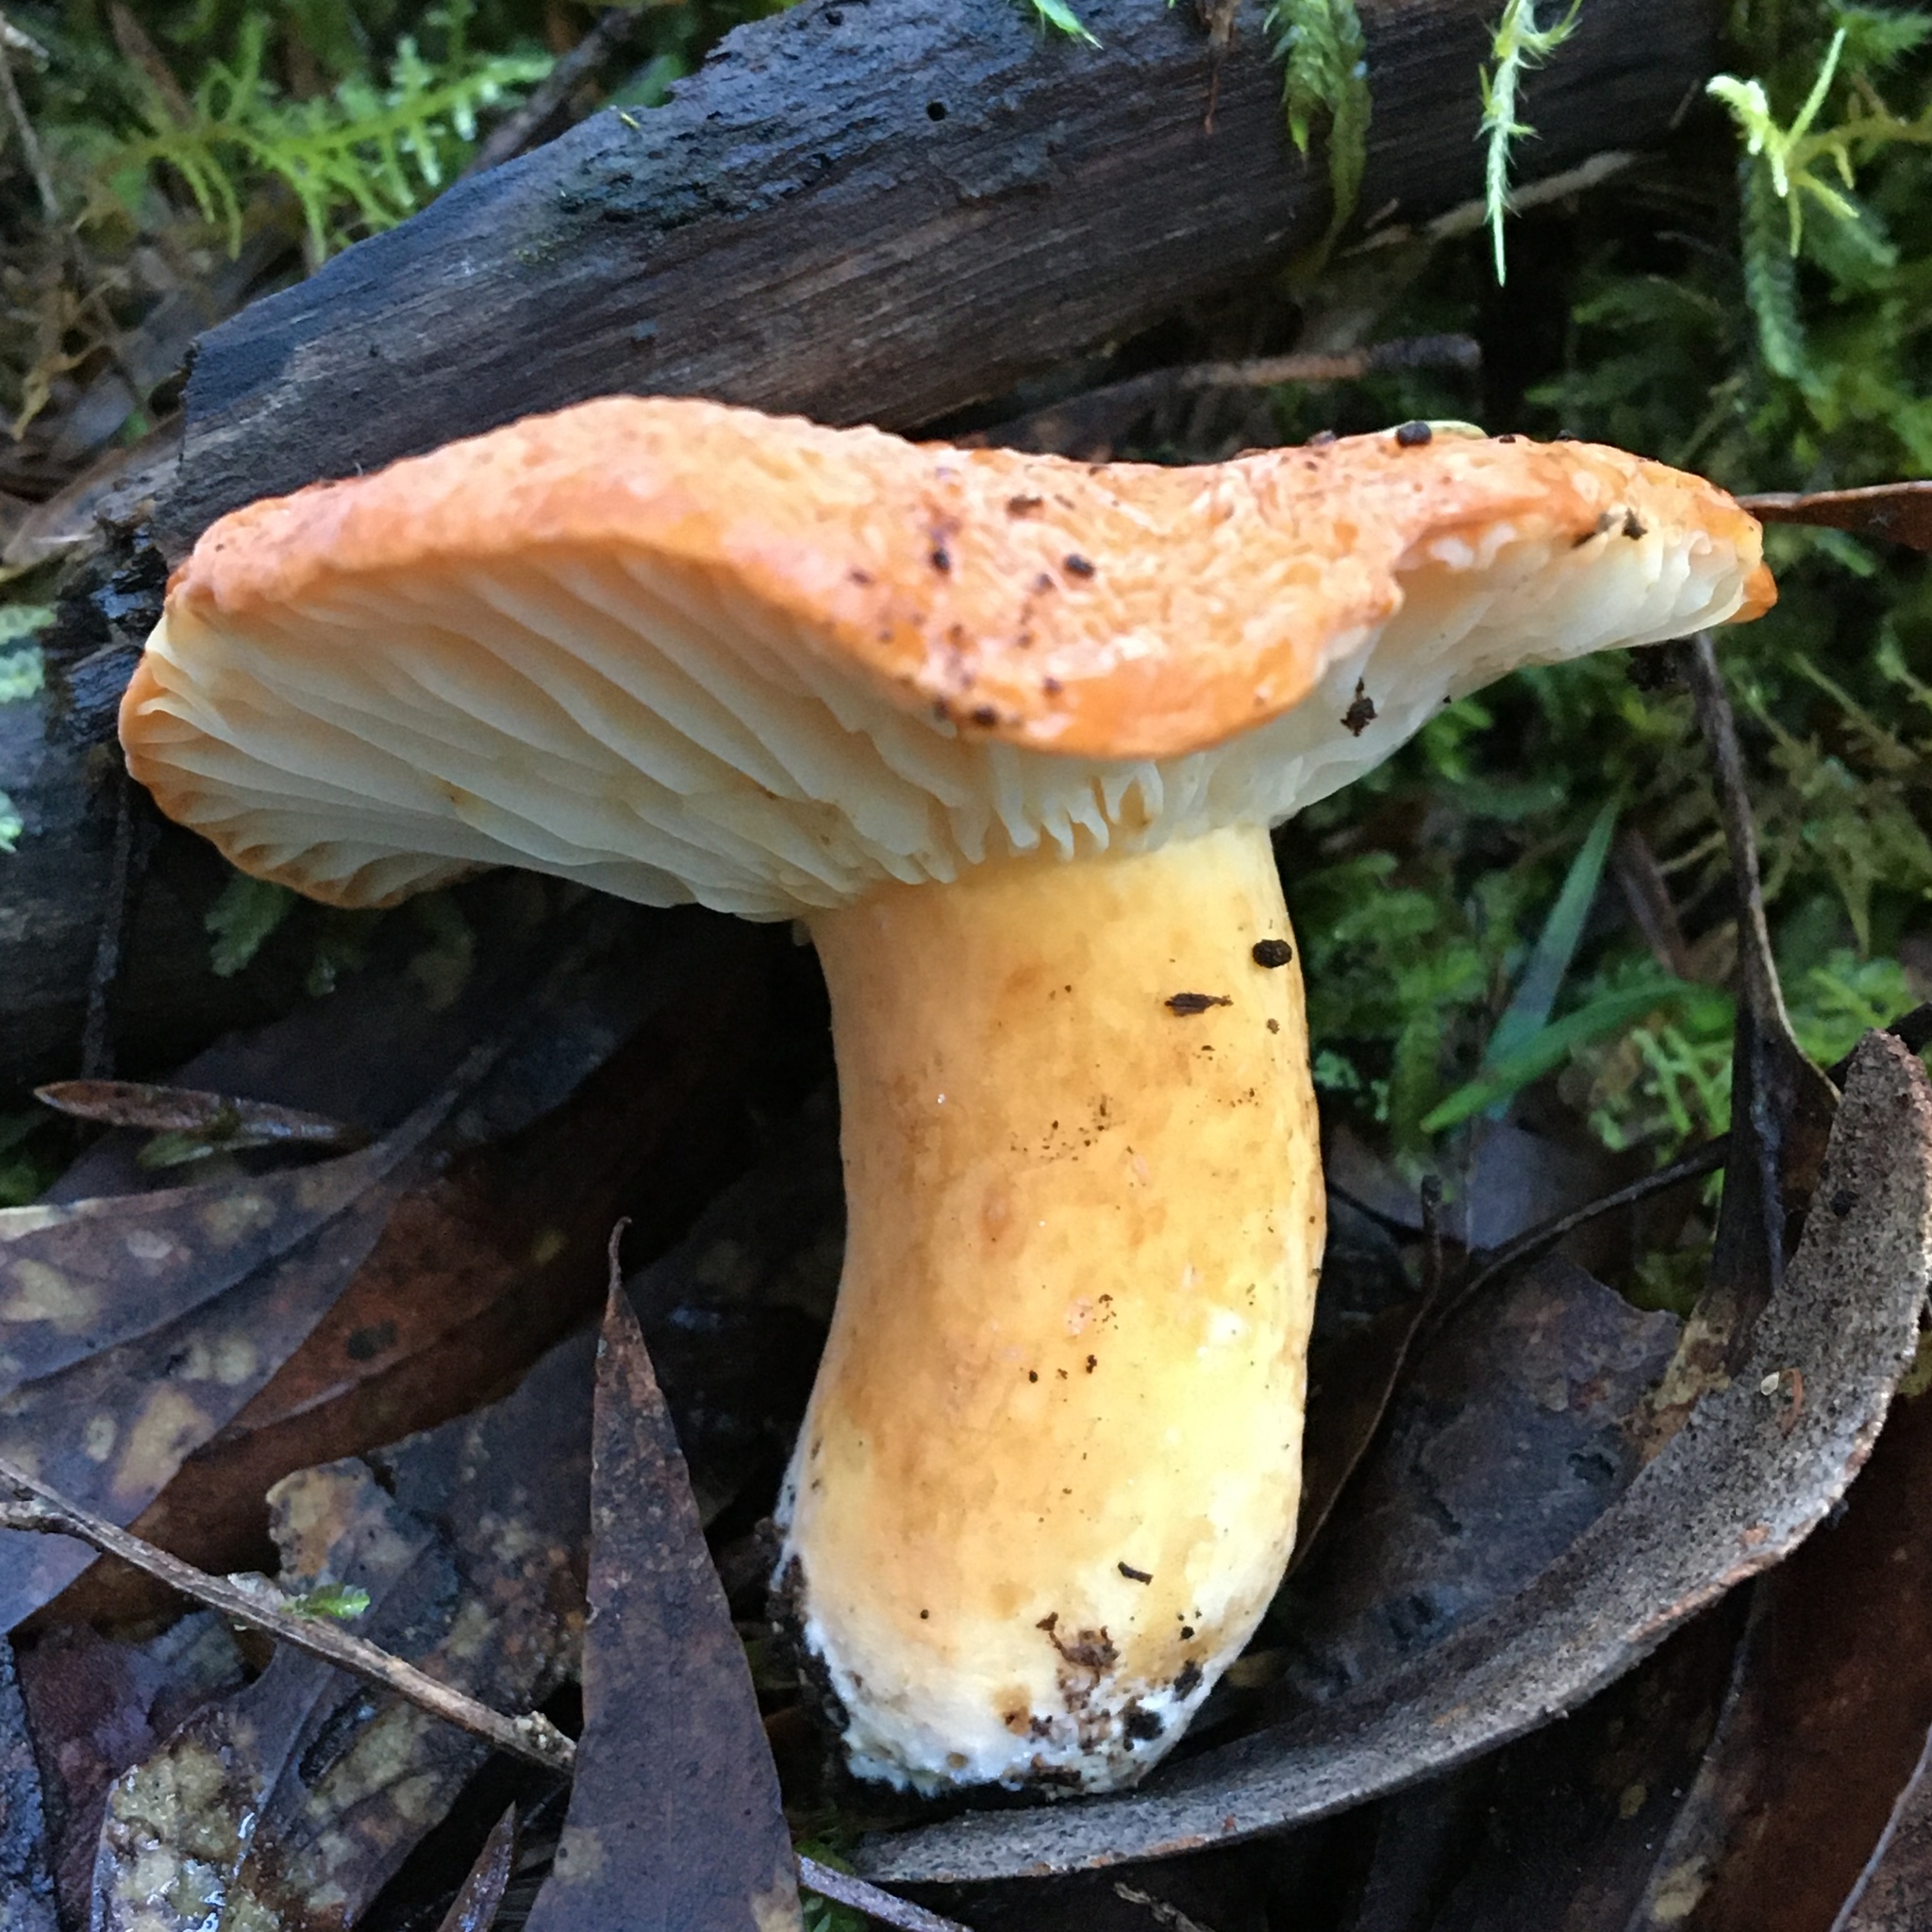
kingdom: Fungi
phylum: Basidiomycota
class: Agaricomycetes
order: Russulales
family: Russulaceae
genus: Lactifluus
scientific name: Lactifluus flocktoniae
